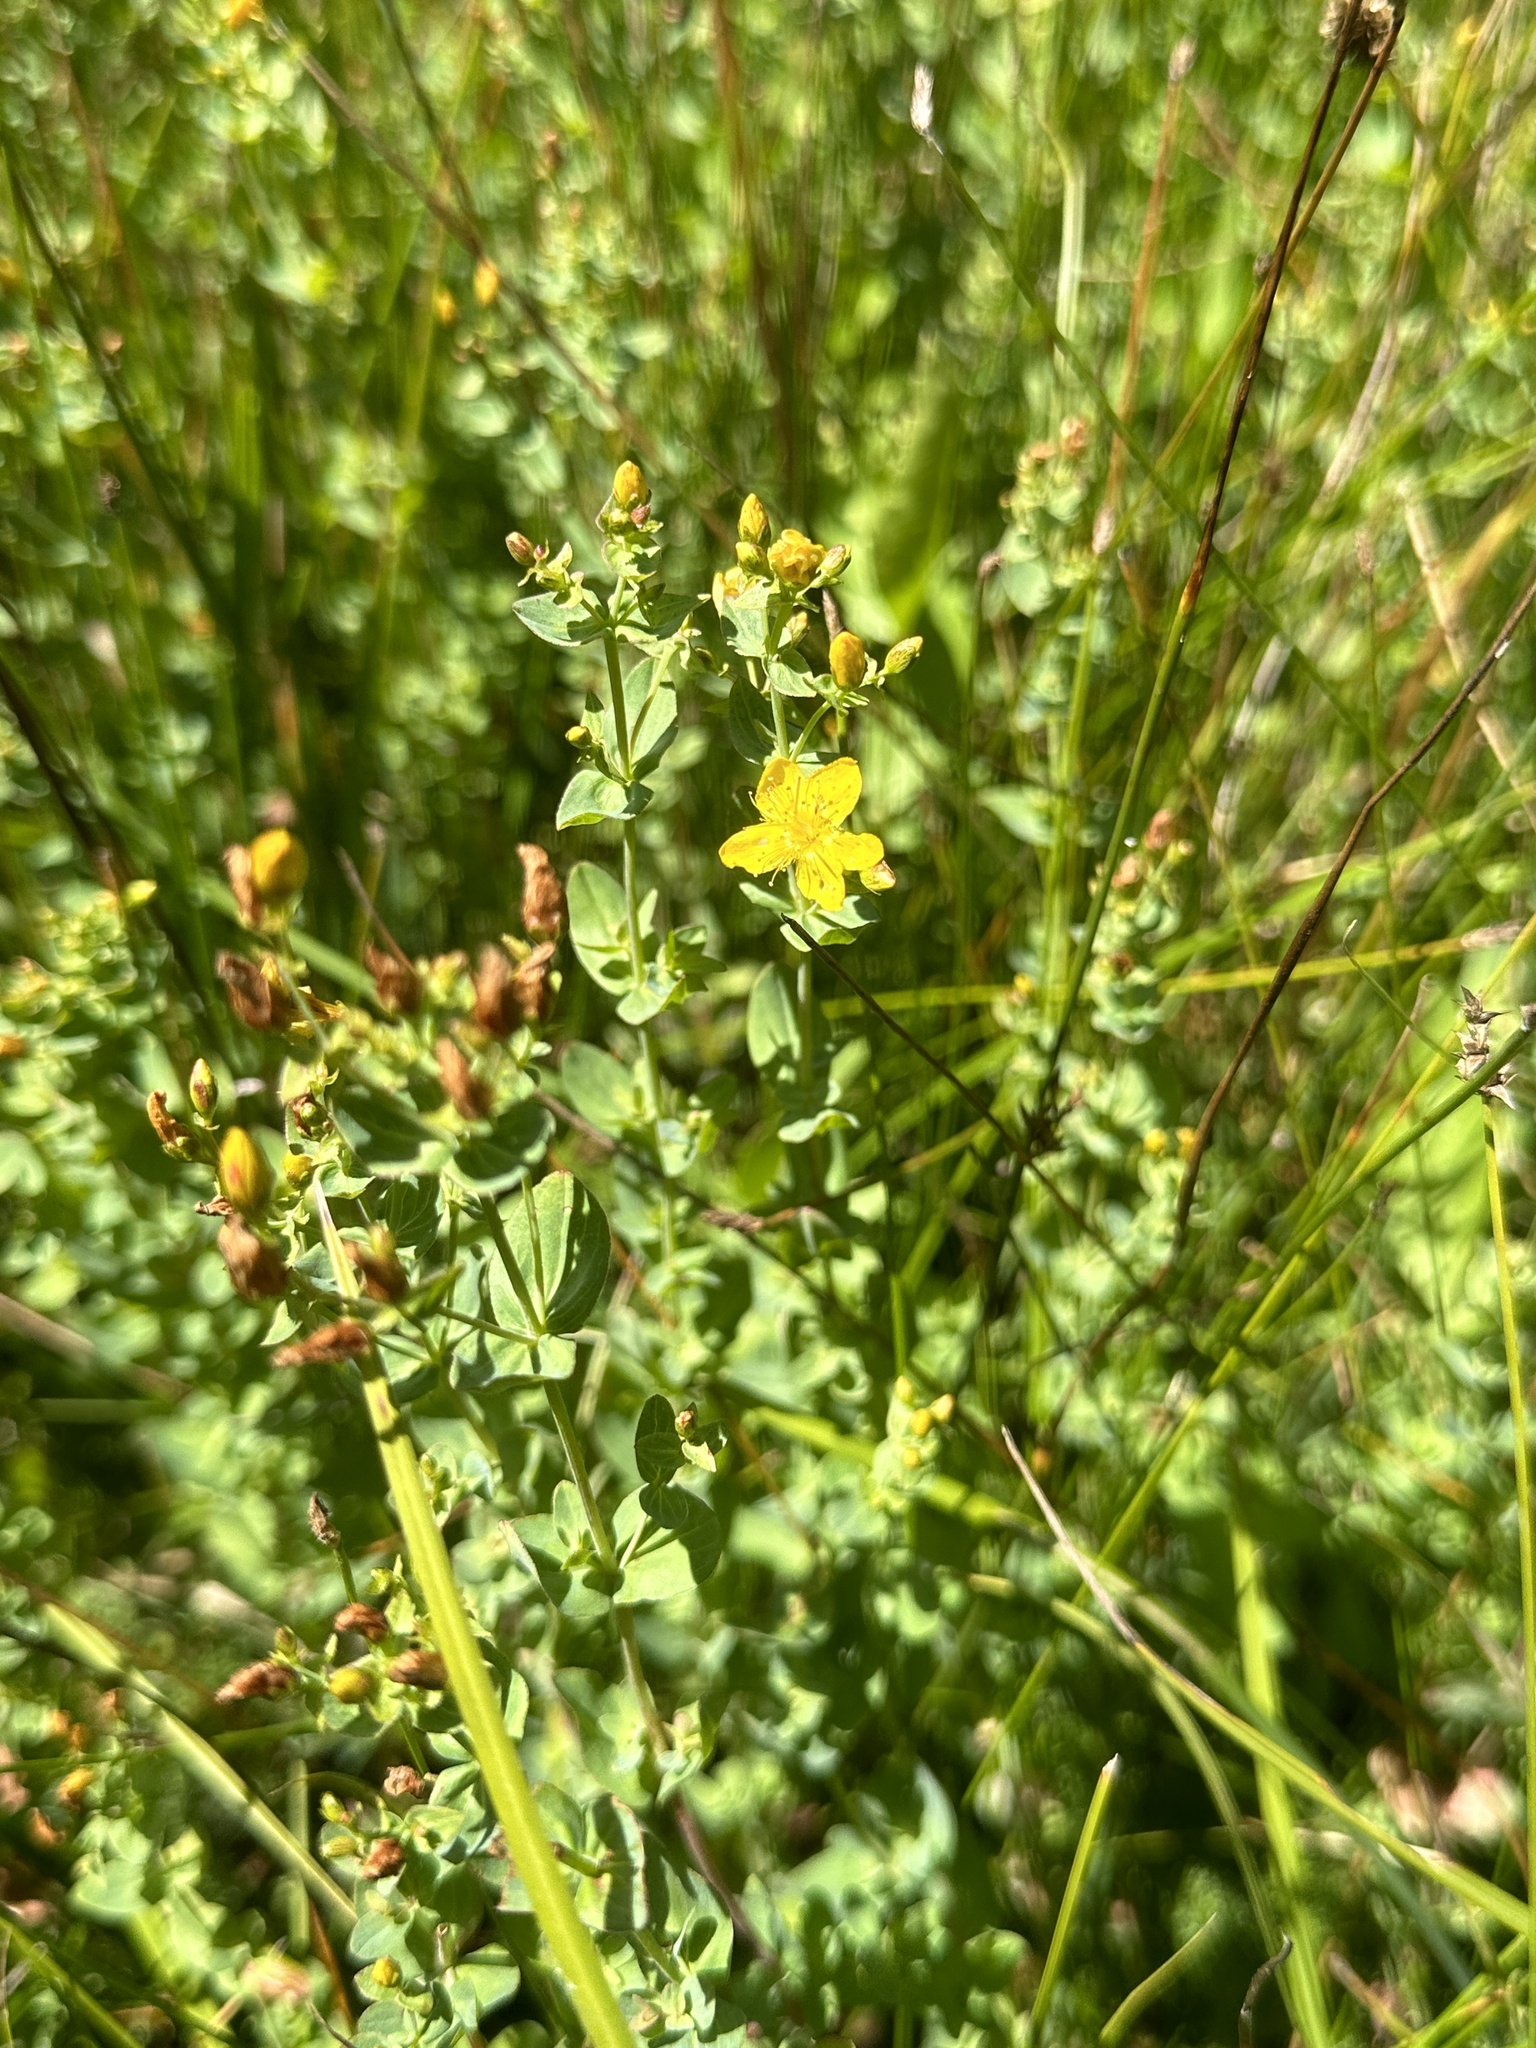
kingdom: Plantae
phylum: Tracheophyta
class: Magnoliopsida
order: Malpighiales
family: Hypericaceae
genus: Hypericum
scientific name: Hypericum scouleri
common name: Scouler's st. john's-wort
